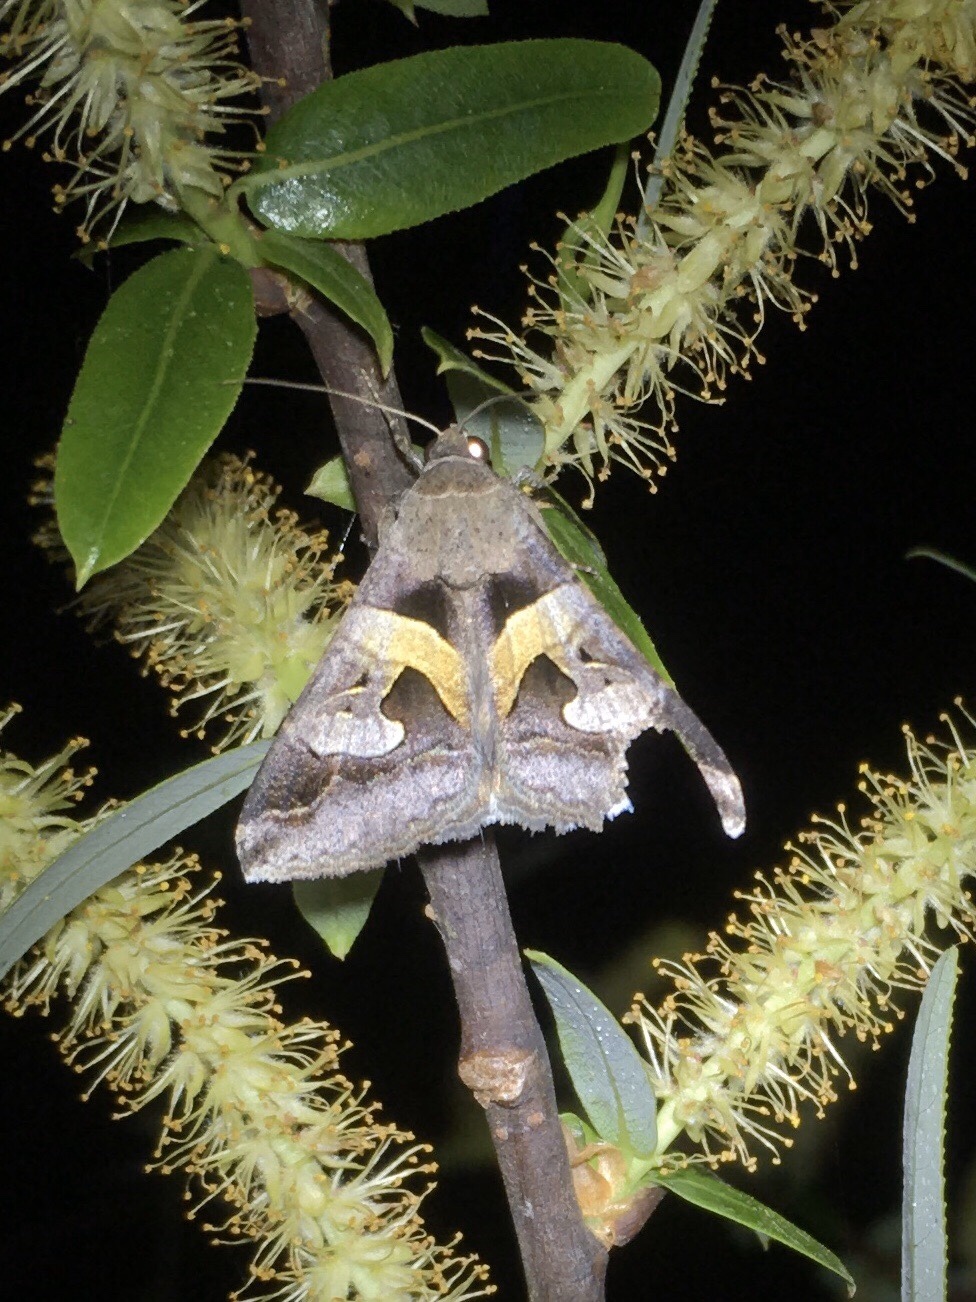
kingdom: Animalia
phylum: Arthropoda
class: Insecta
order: Lepidoptera
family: Erebidae
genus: Melipotis
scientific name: Melipotis florida
